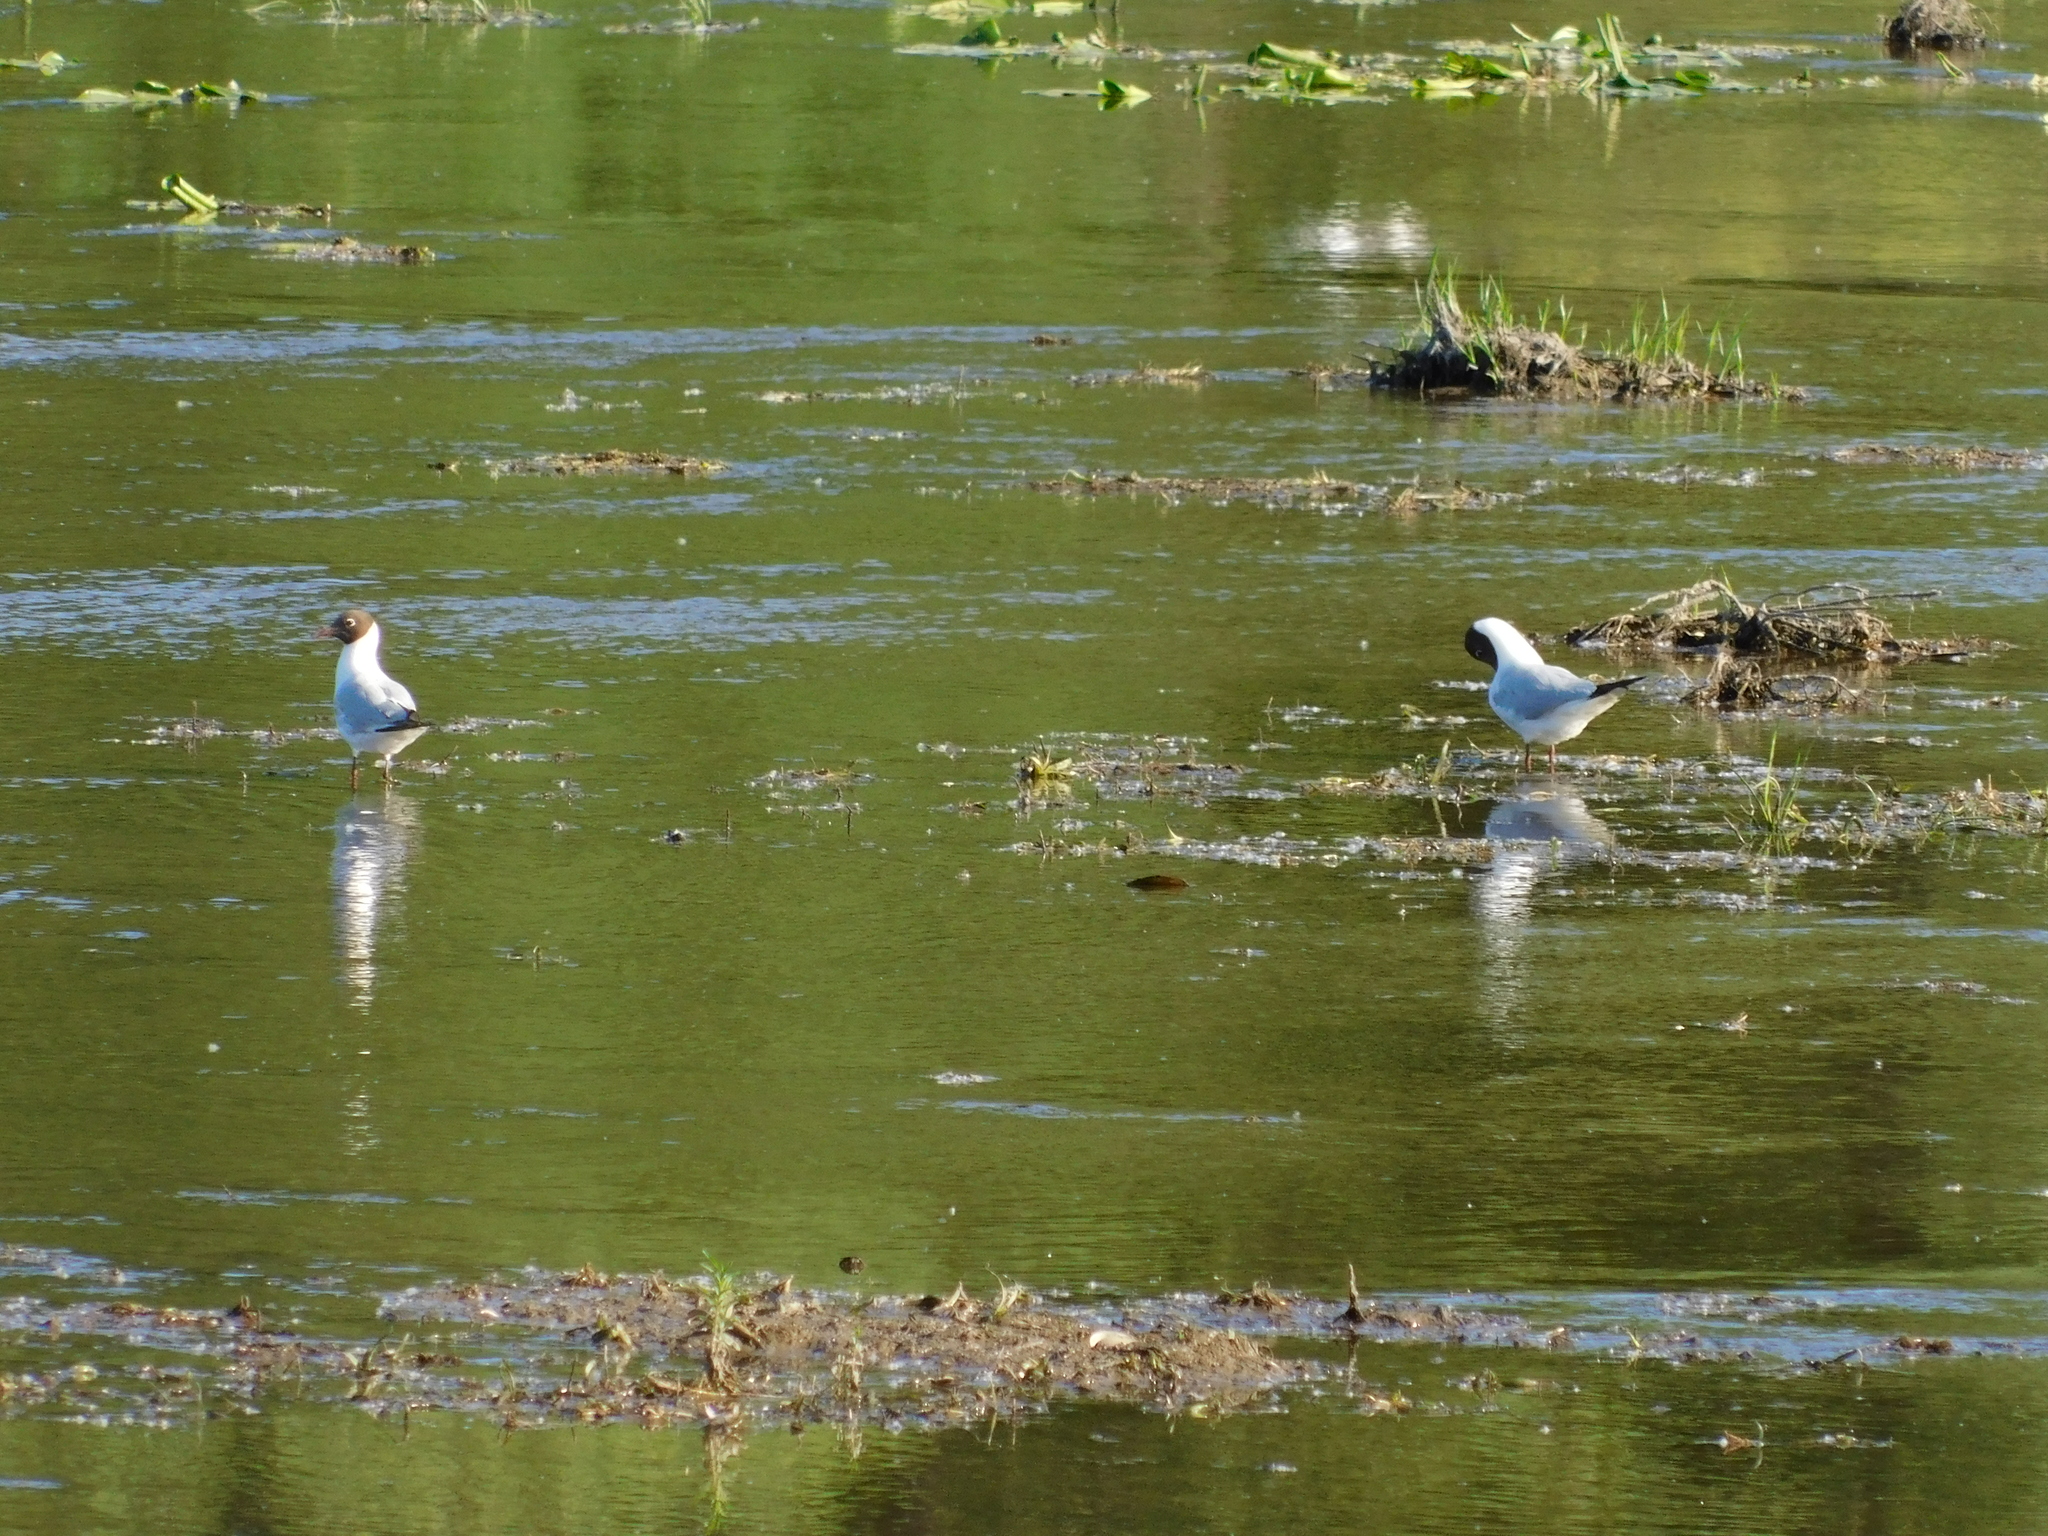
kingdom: Animalia
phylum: Chordata
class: Aves
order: Charadriiformes
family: Laridae
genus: Chroicocephalus
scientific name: Chroicocephalus ridibundus
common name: Black-headed gull
